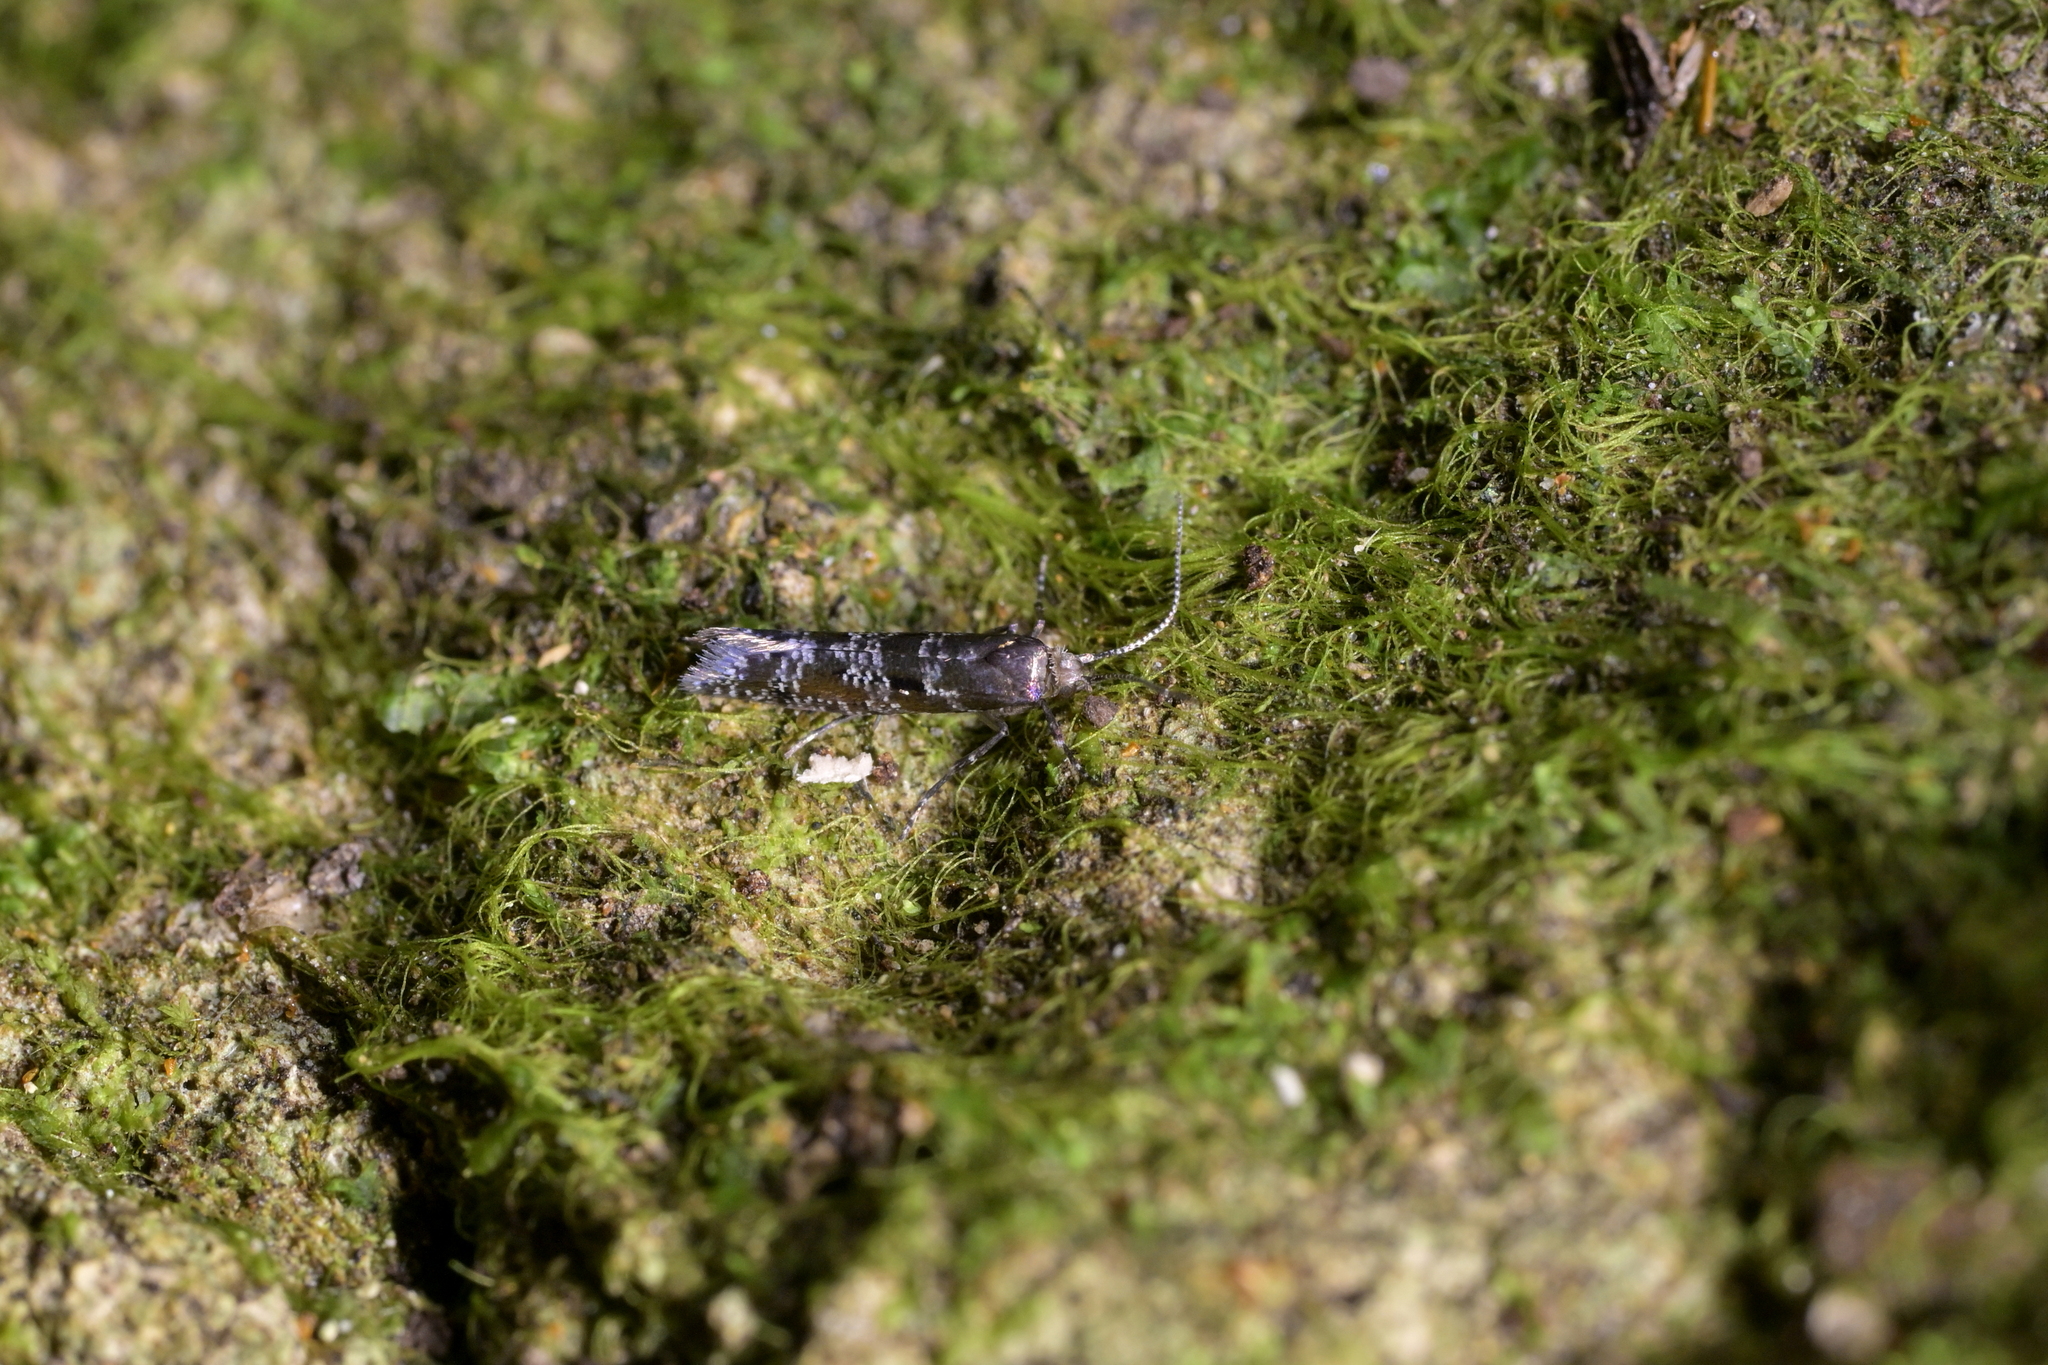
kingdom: Animalia
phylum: Arthropoda
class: Insecta
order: Lepidoptera
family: Glyphipterigidae
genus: Chrysorthenches
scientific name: Chrysorthenches drosochalca
